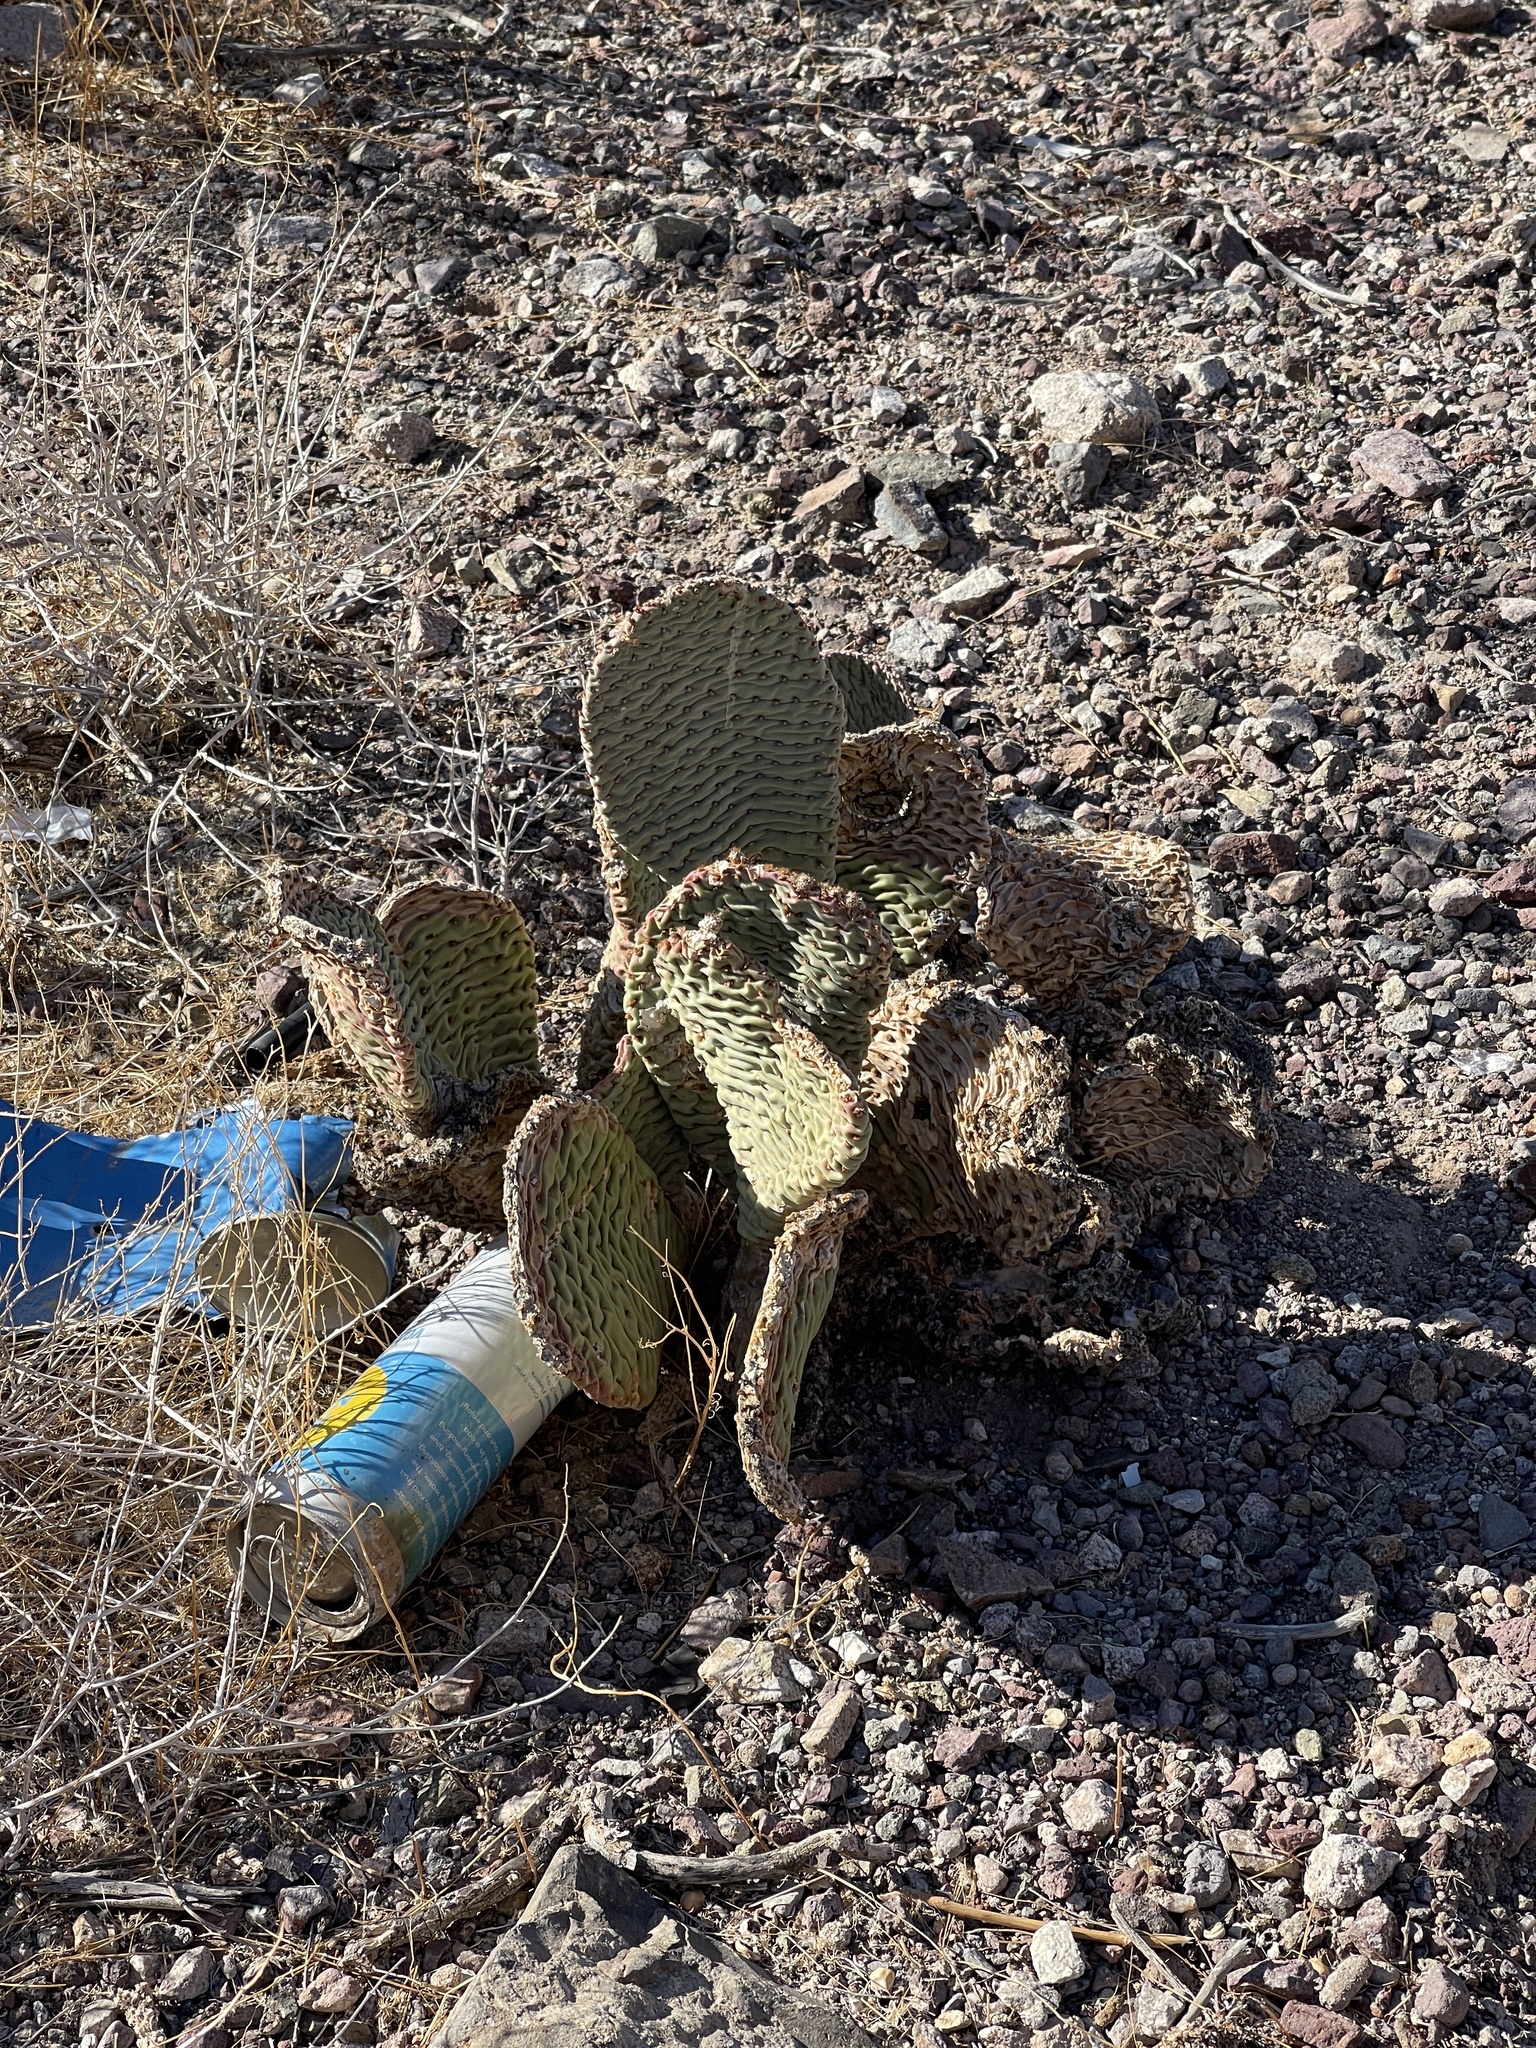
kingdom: Plantae
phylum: Tracheophyta
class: Magnoliopsida
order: Caryophyllales
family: Cactaceae
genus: Opuntia
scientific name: Opuntia basilaris
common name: Beavertail prickly-pear
